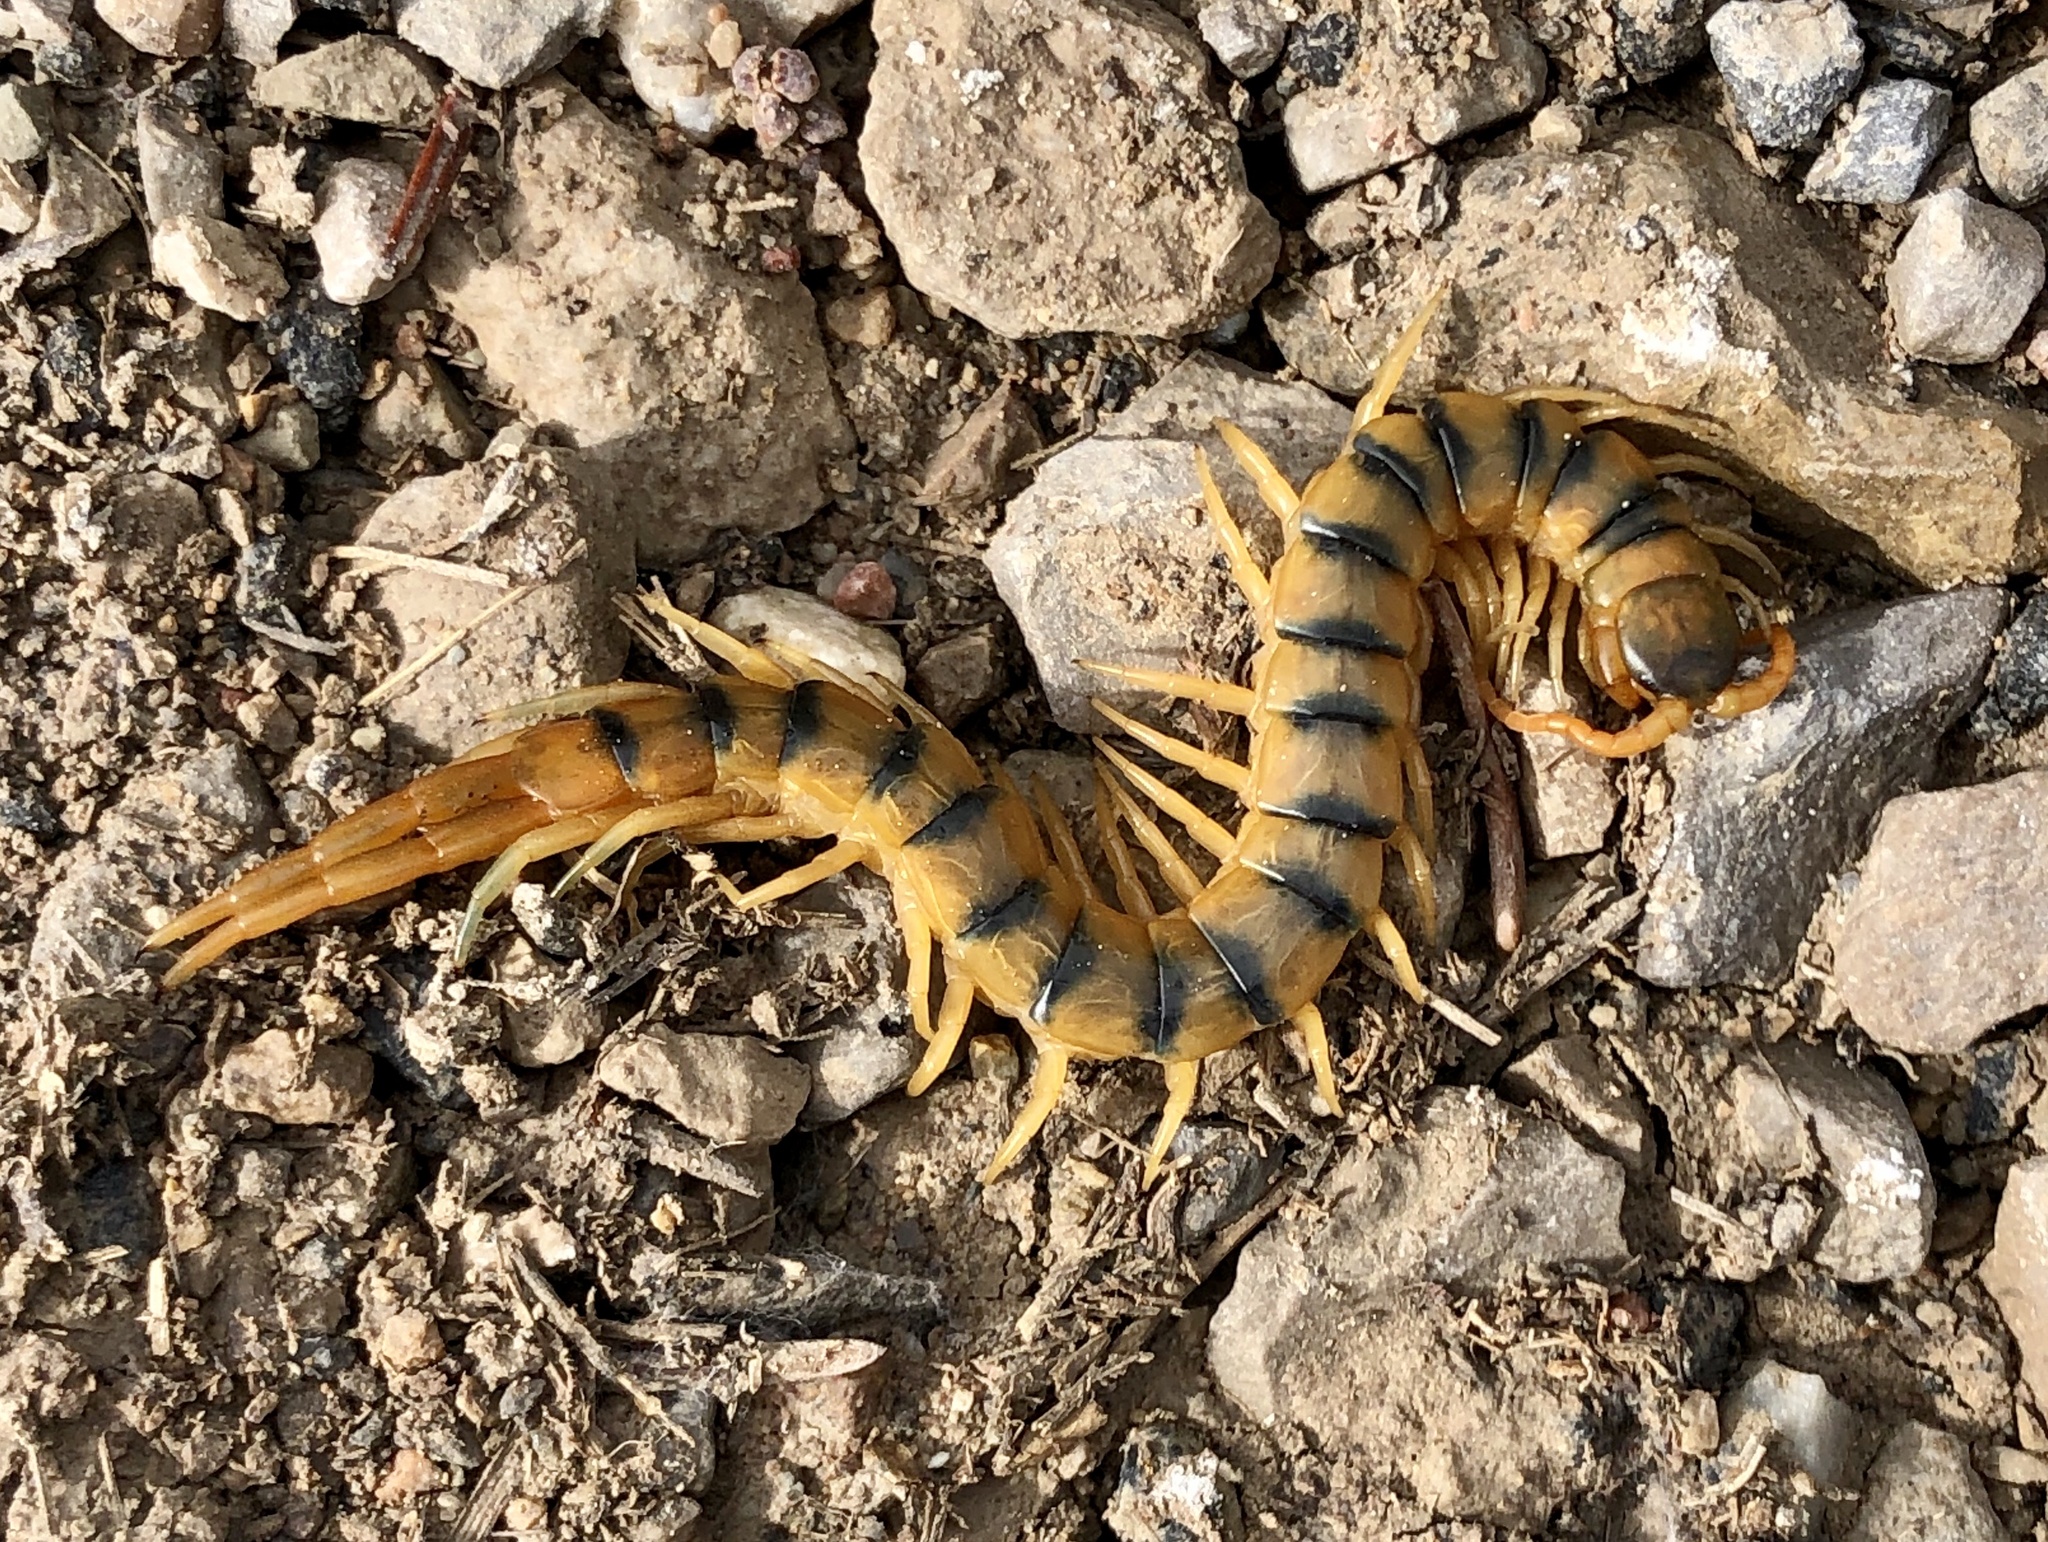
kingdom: Animalia
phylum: Arthropoda
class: Chilopoda
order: Scolopendromorpha
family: Scolopendridae
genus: Scolopendra
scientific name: Scolopendra cingulata
